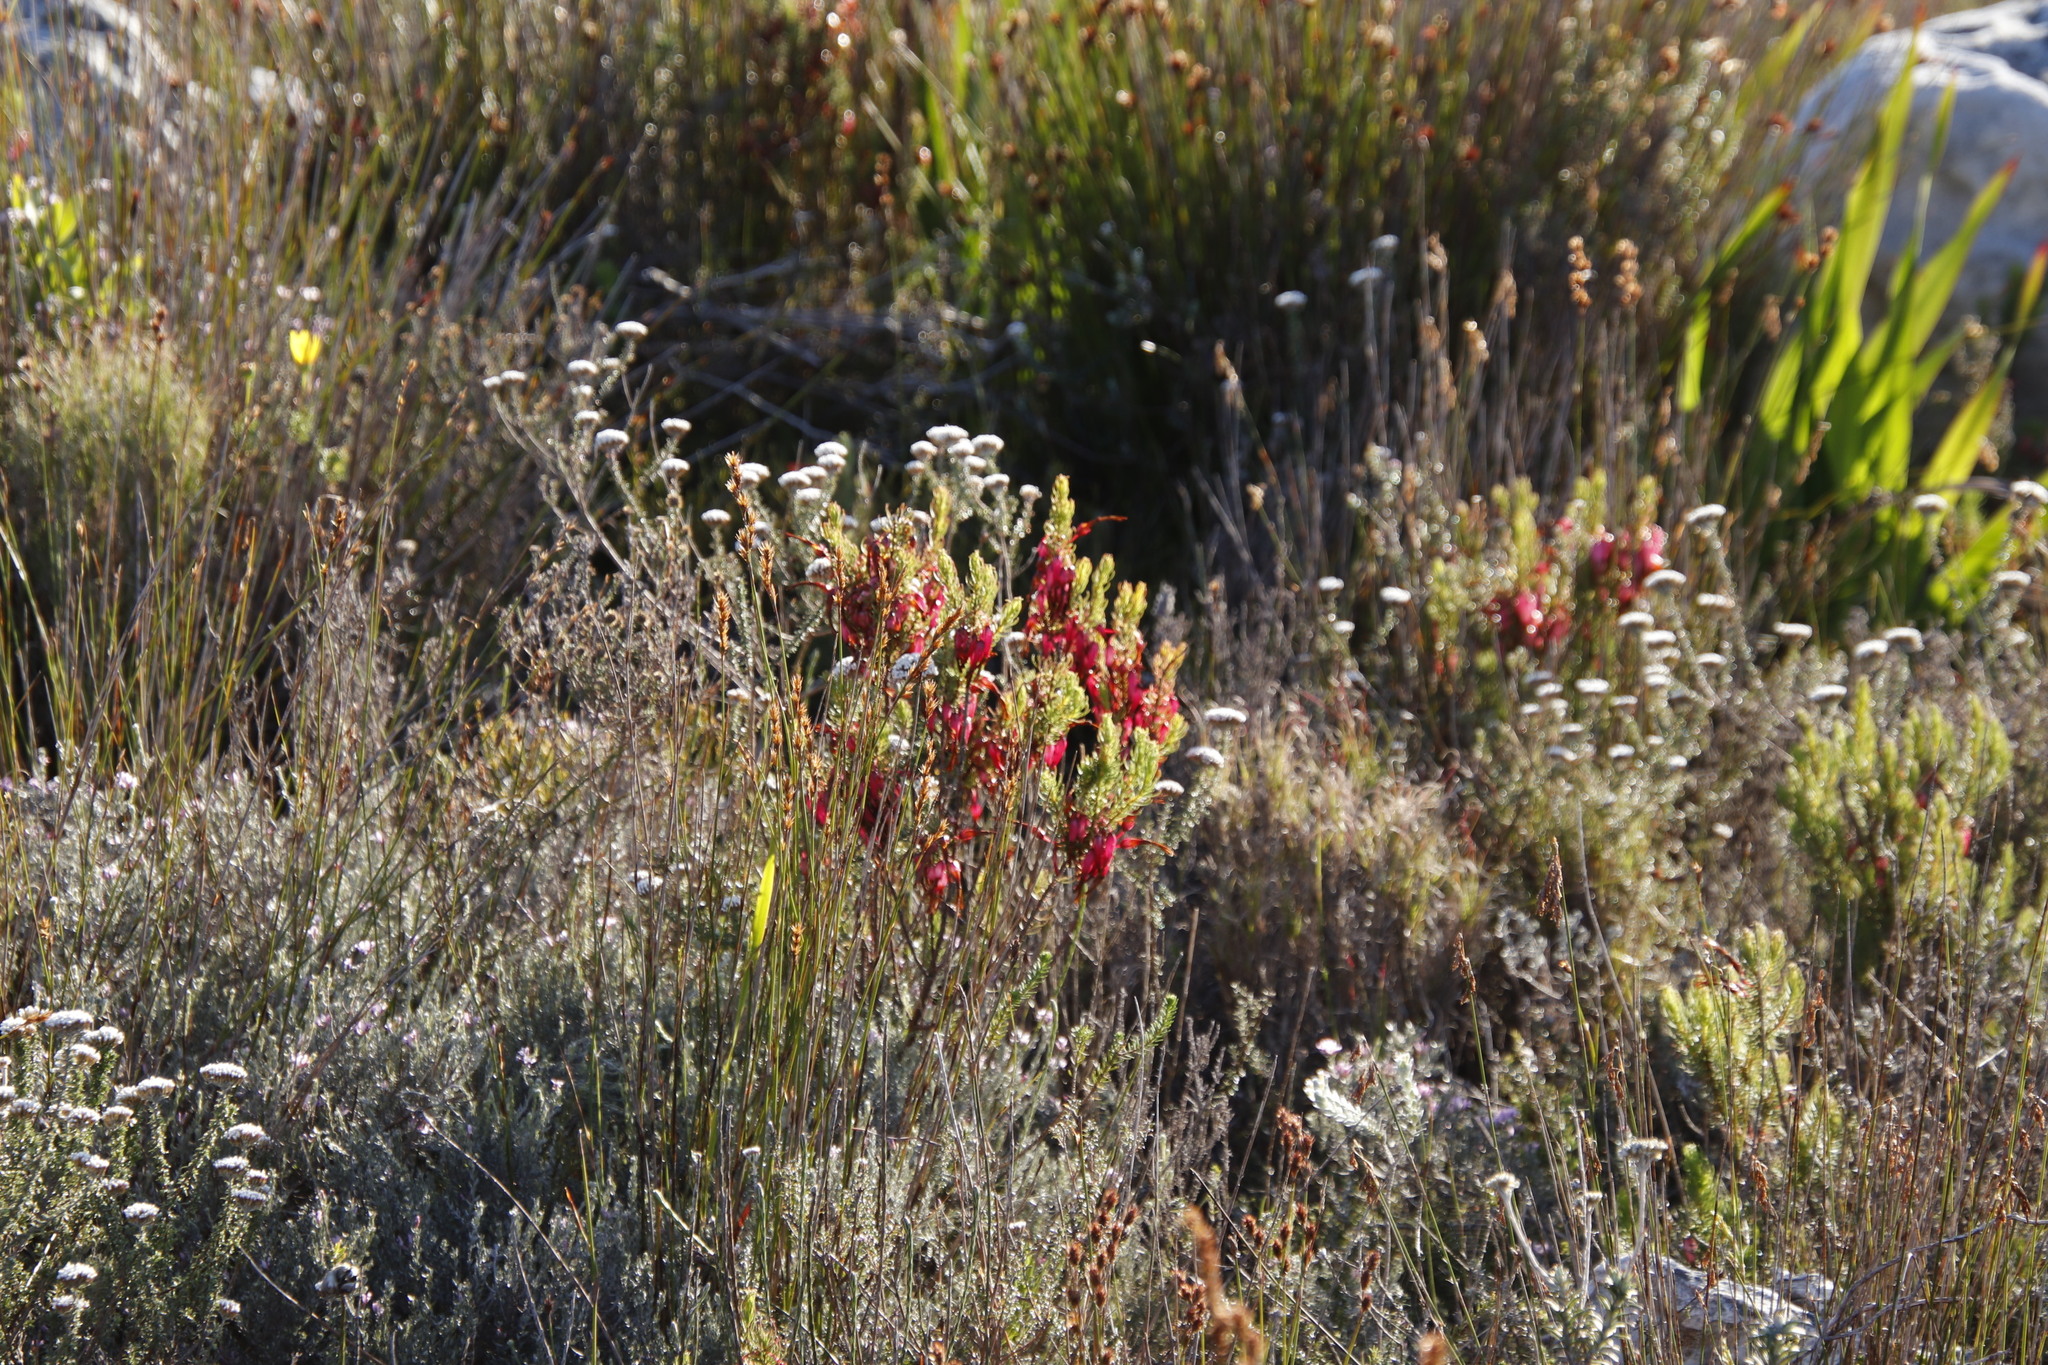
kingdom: Plantae
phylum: Tracheophyta
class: Magnoliopsida
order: Ericales
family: Ericaceae
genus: Erica
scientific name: Erica plukenetii
